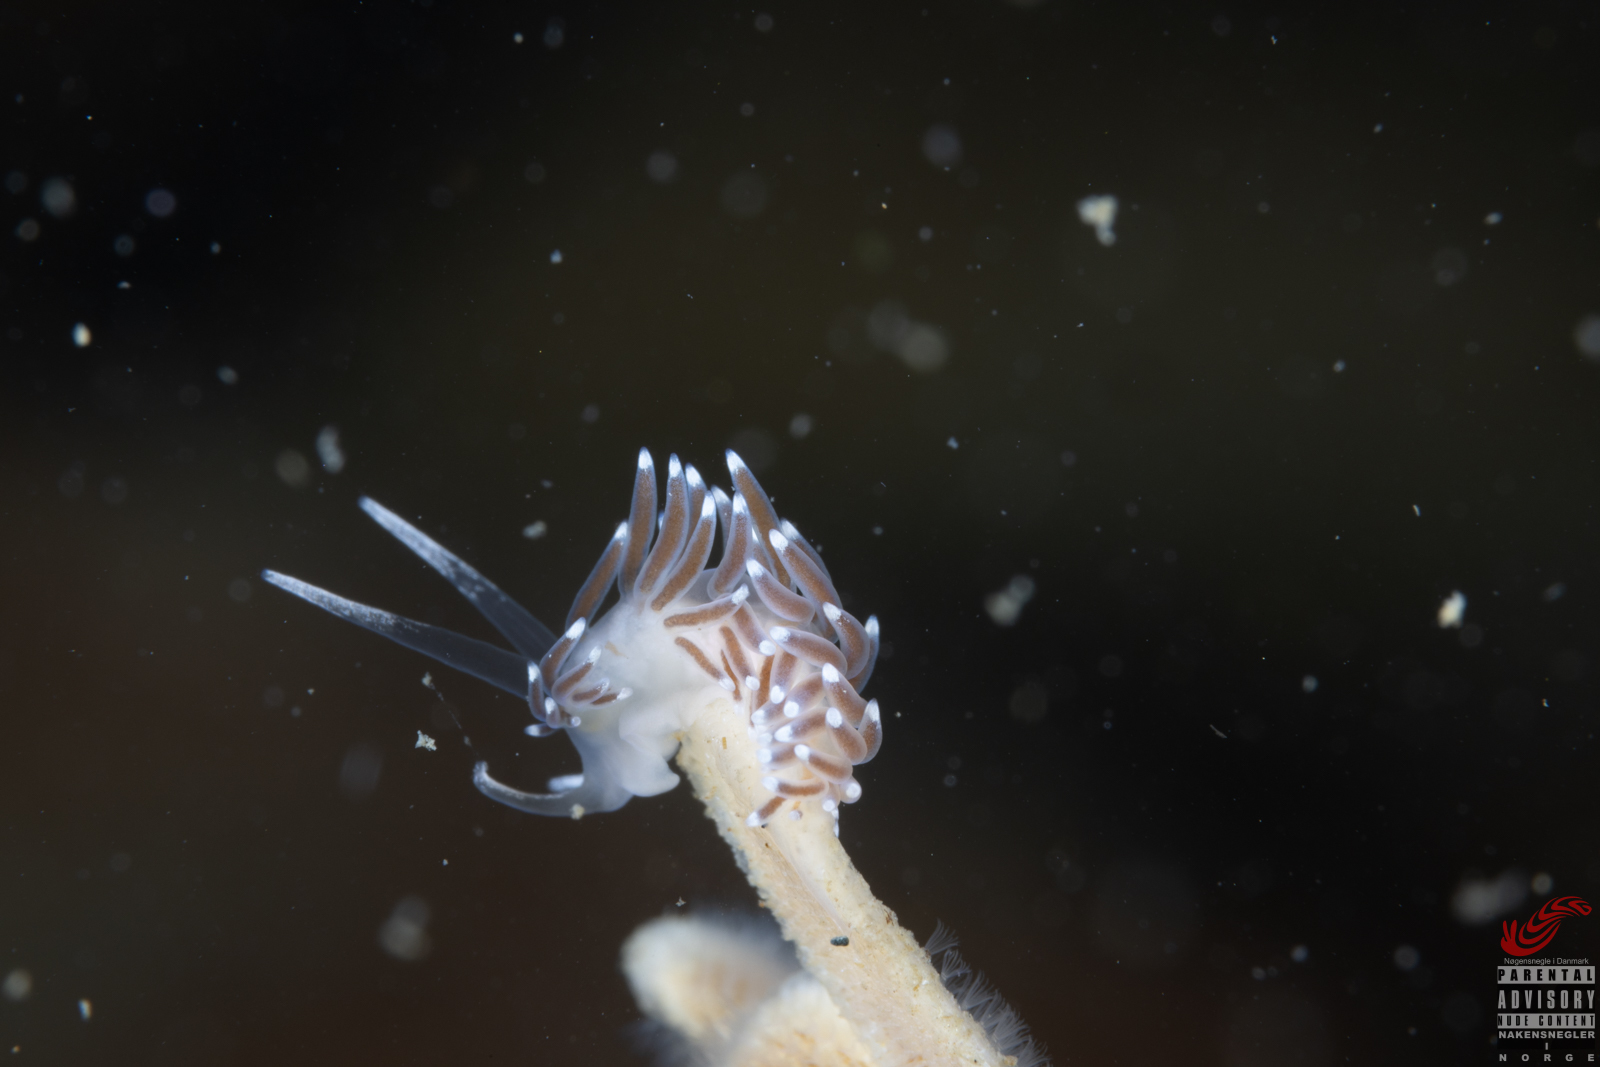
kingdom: Animalia
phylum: Mollusca
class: Gastropoda
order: Nudibranchia
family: Cuthonellidae
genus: Cuthonella
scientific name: Cuthonella concinna
